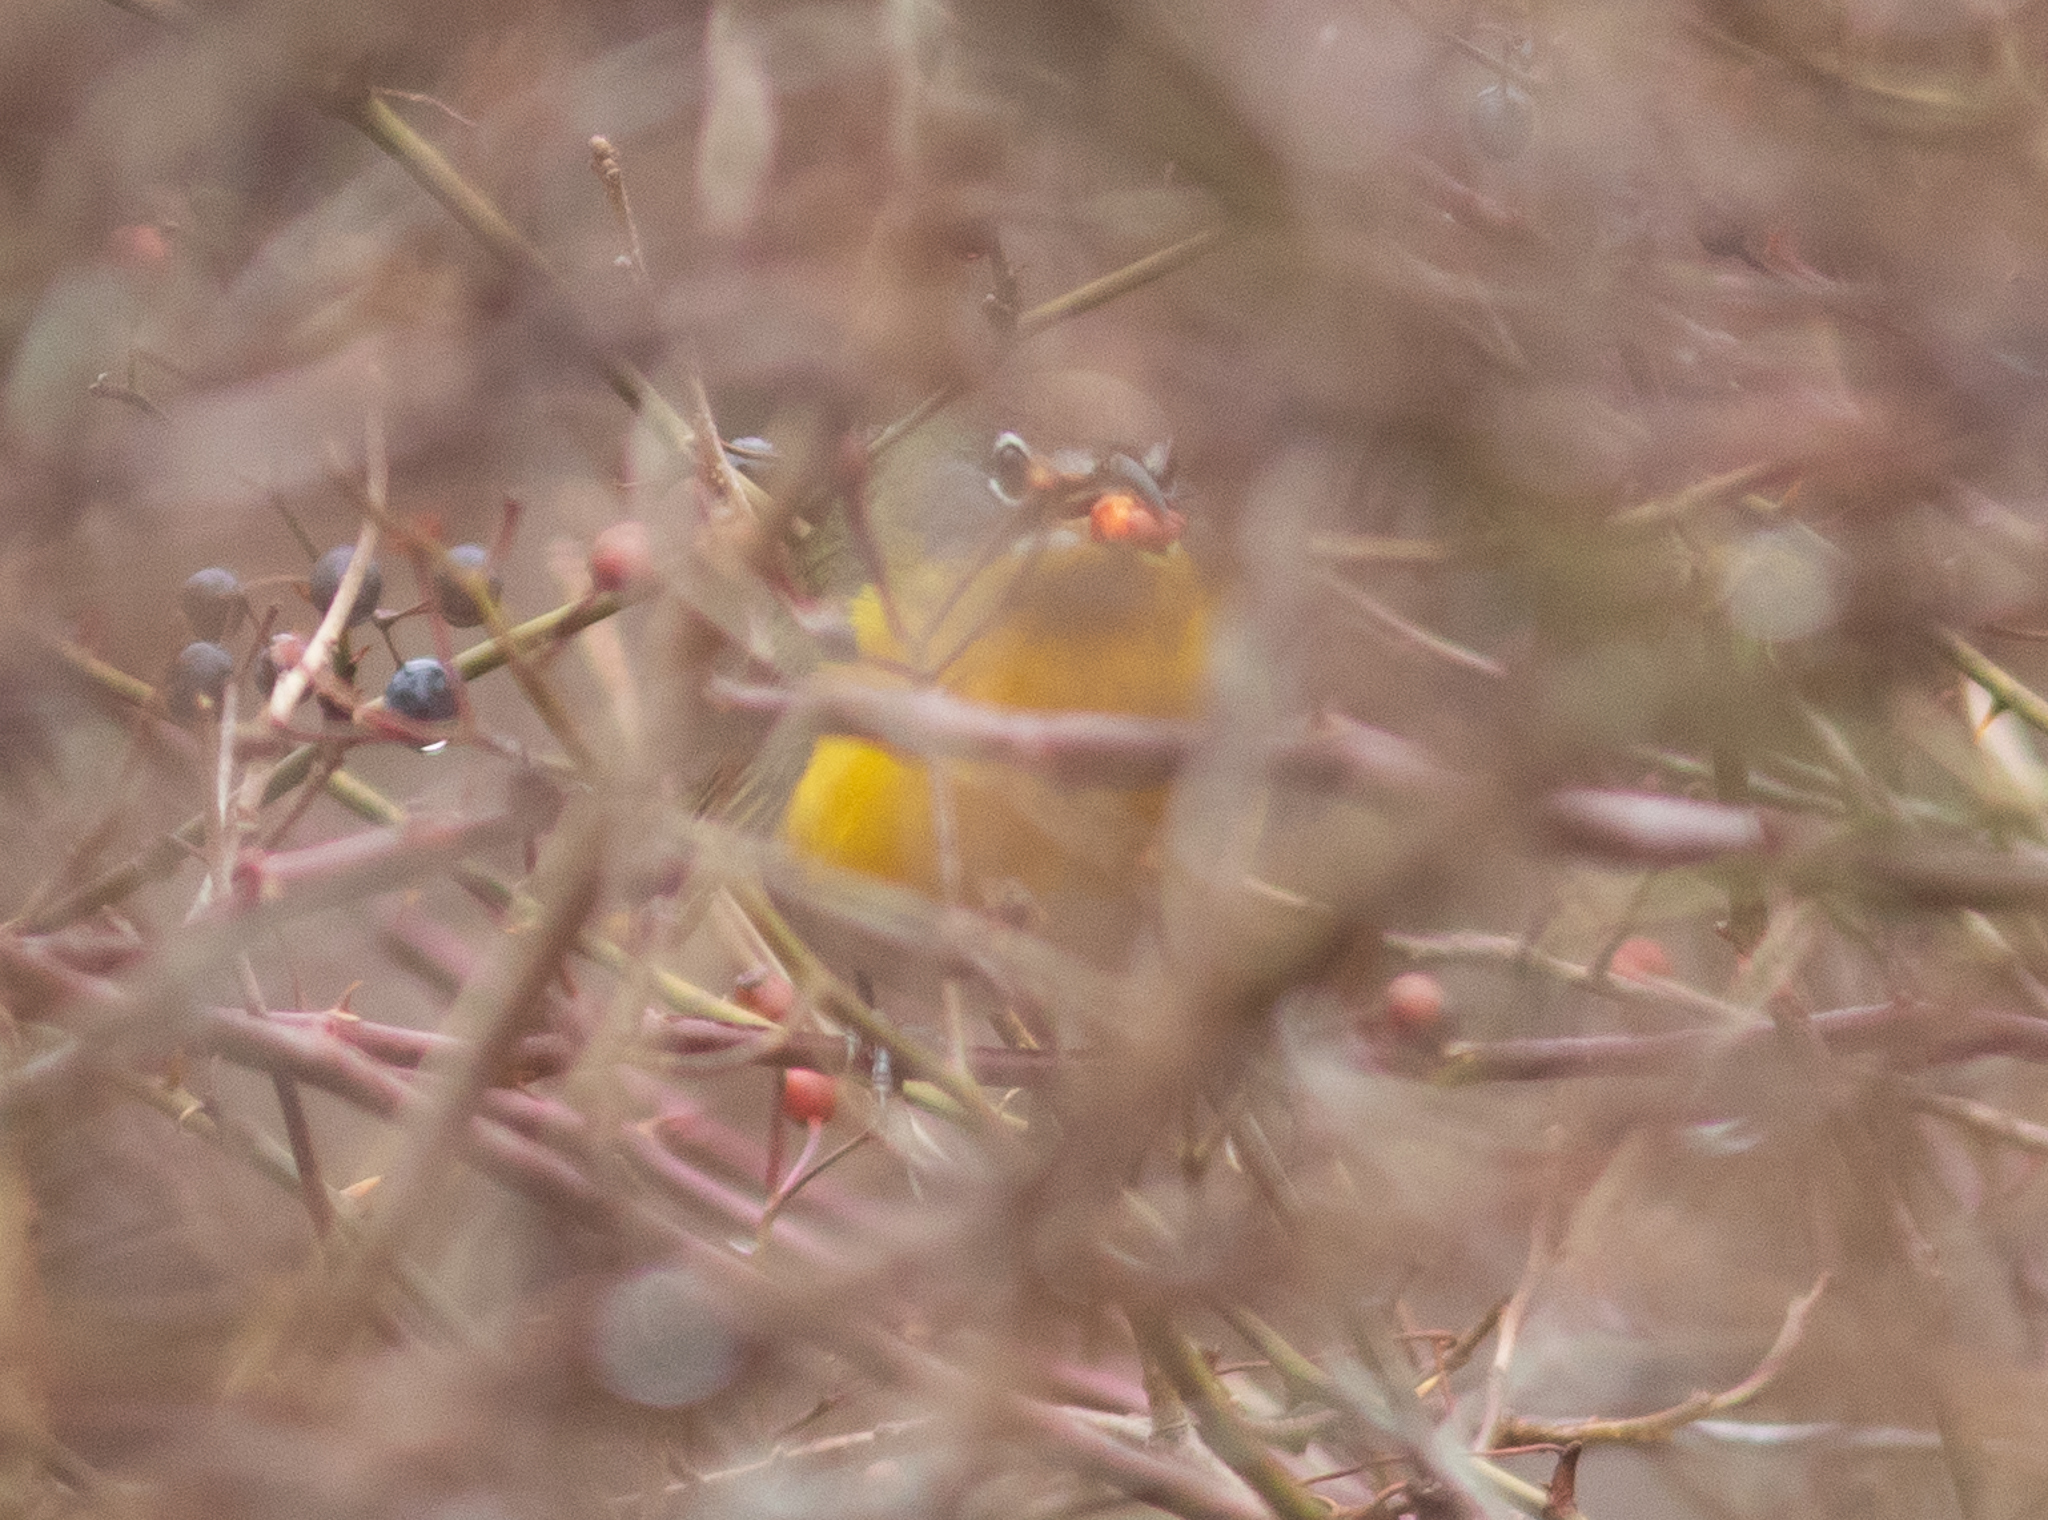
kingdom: Animalia
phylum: Chordata
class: Aves
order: Passeriformes
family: Parulidae
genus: Icteria
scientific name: Icteria virens
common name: Yellow-breasted chat
